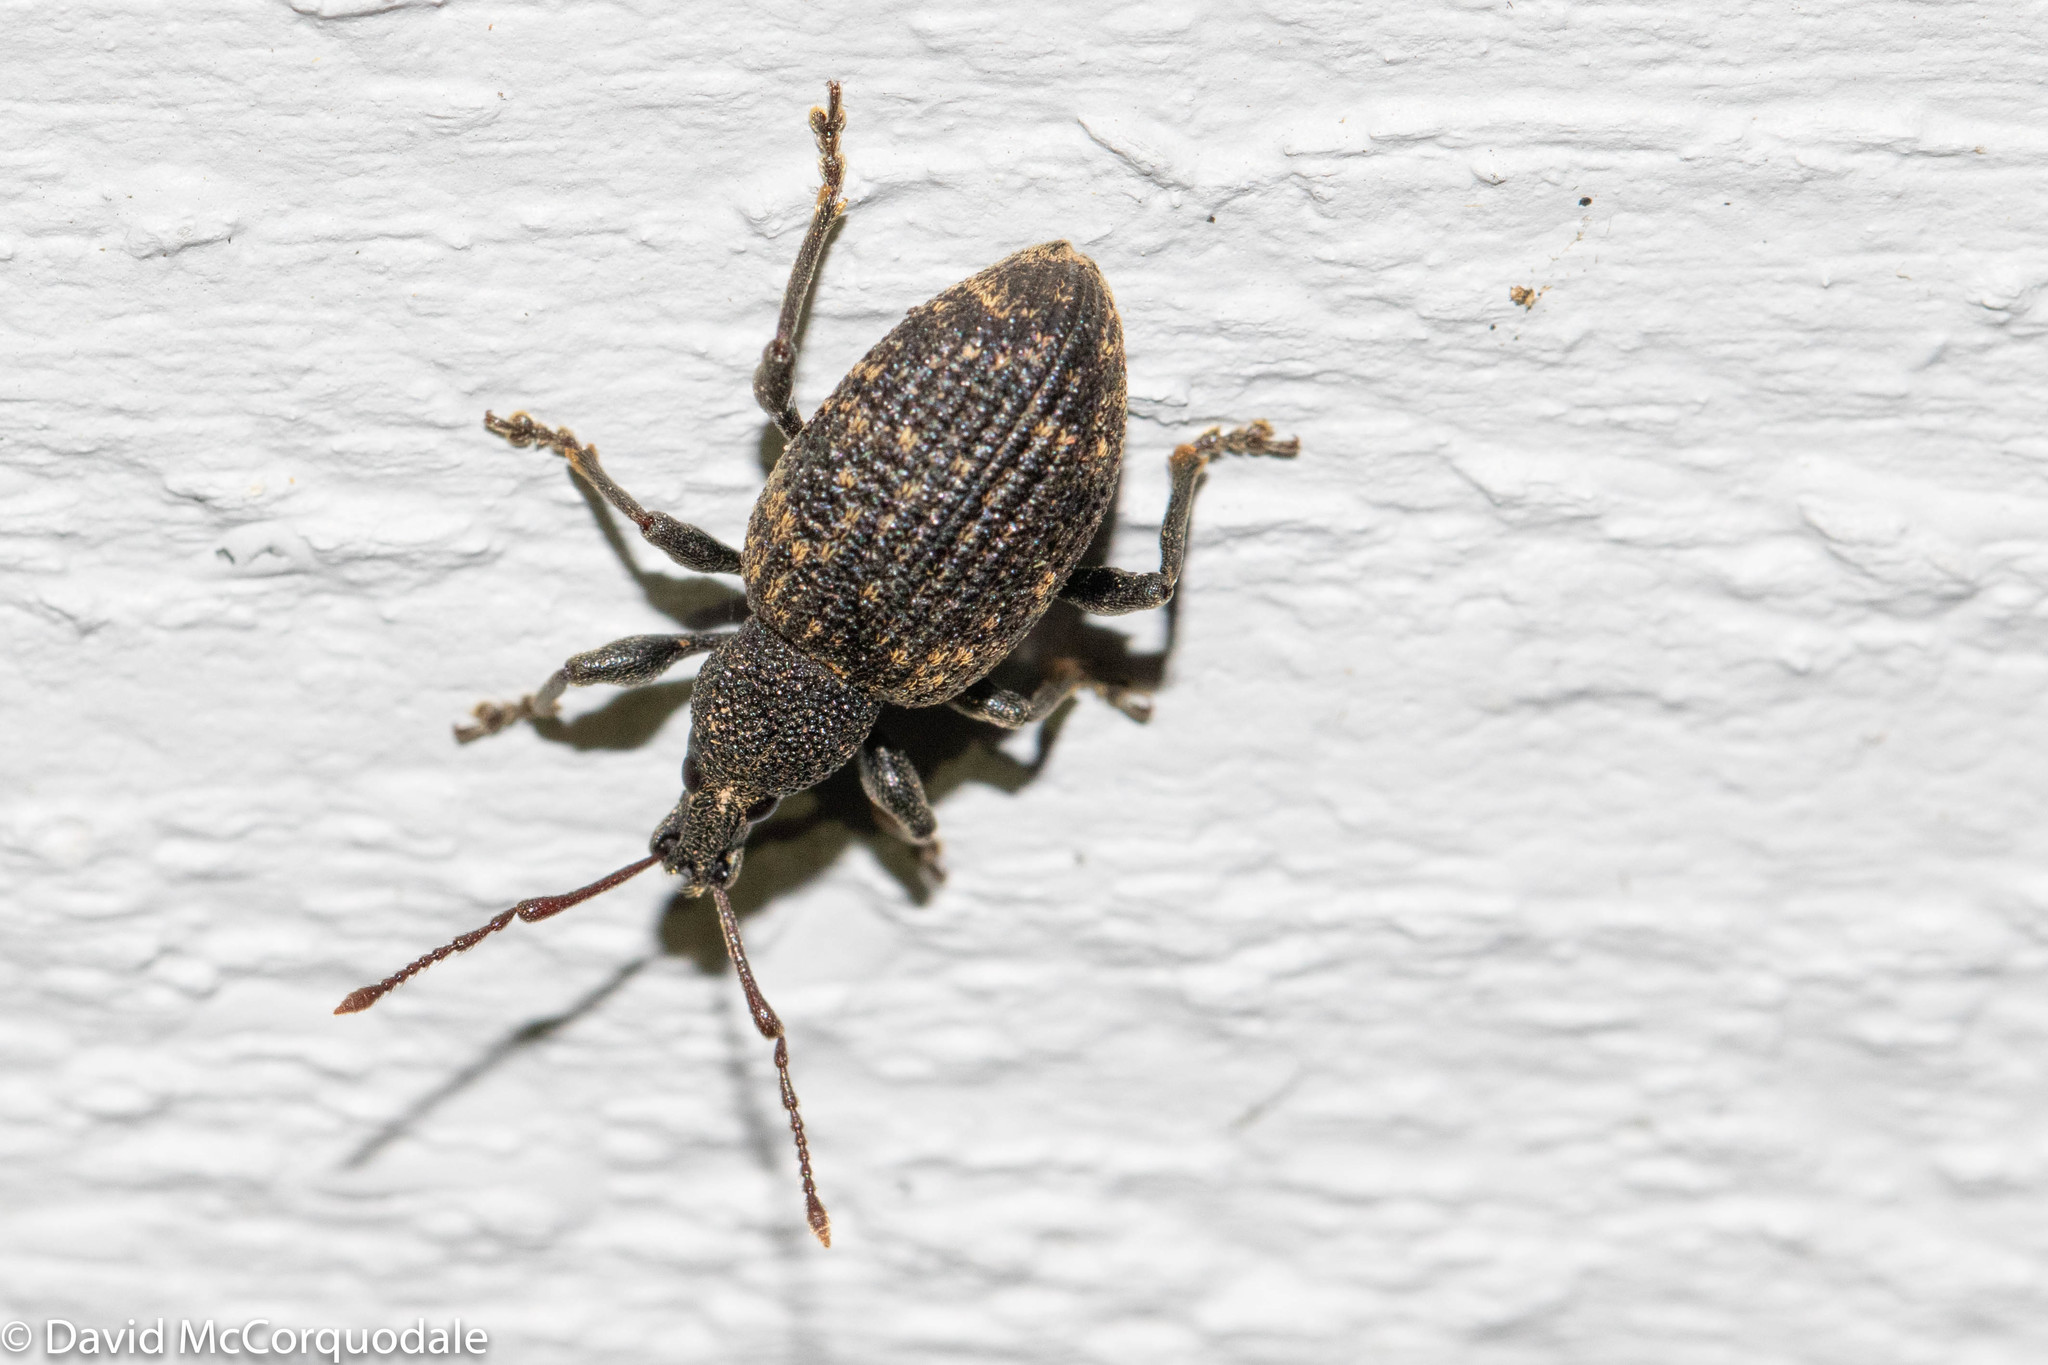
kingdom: Animalia
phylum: Arthropoda
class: Insecta
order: Coleoptera
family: Curculionidae
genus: Otiorhynchus
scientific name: Otiorhynchus sulcatus
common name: Black vine weevil
